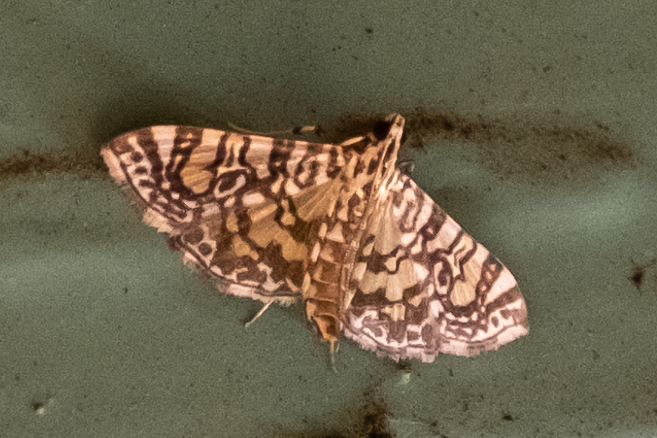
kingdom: Animalia
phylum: Arthropoda
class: Insecta
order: Lepidoptera
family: Crambidae
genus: Glyphodes
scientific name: Glyphodes onychinalis
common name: Swan plant moth
